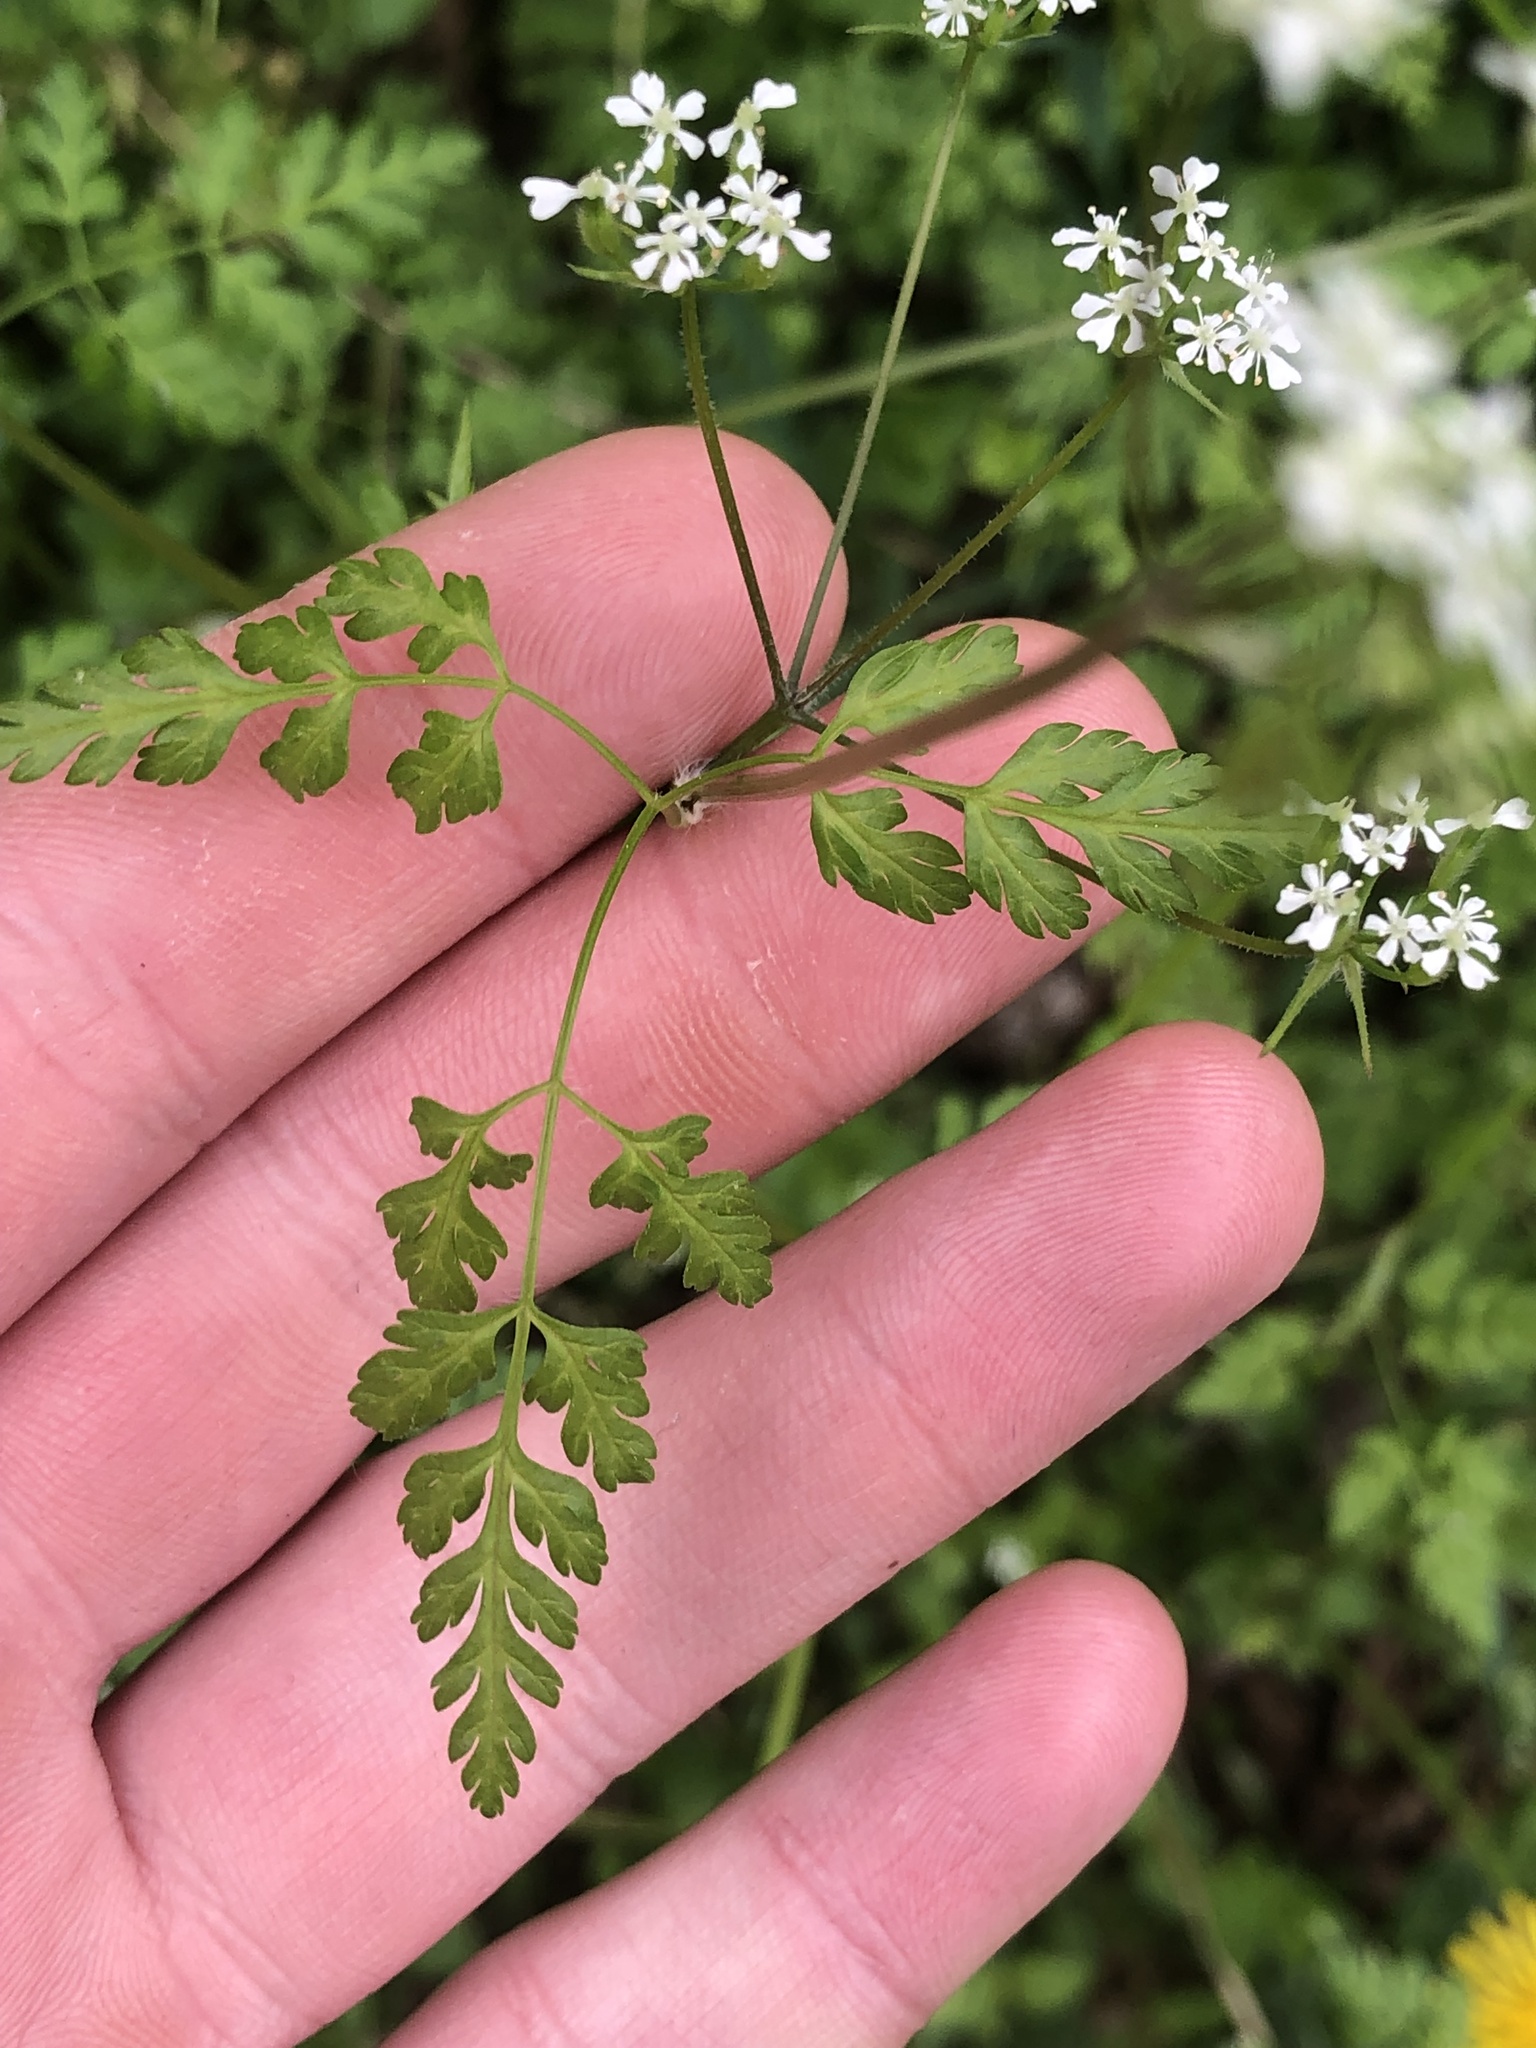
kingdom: Plantae
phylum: Tracheophyta
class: Magnoliopsida
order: Apiales
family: Apiaceae
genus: Anthriscus
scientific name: Anthriscus cerefolium
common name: Garden chervil
